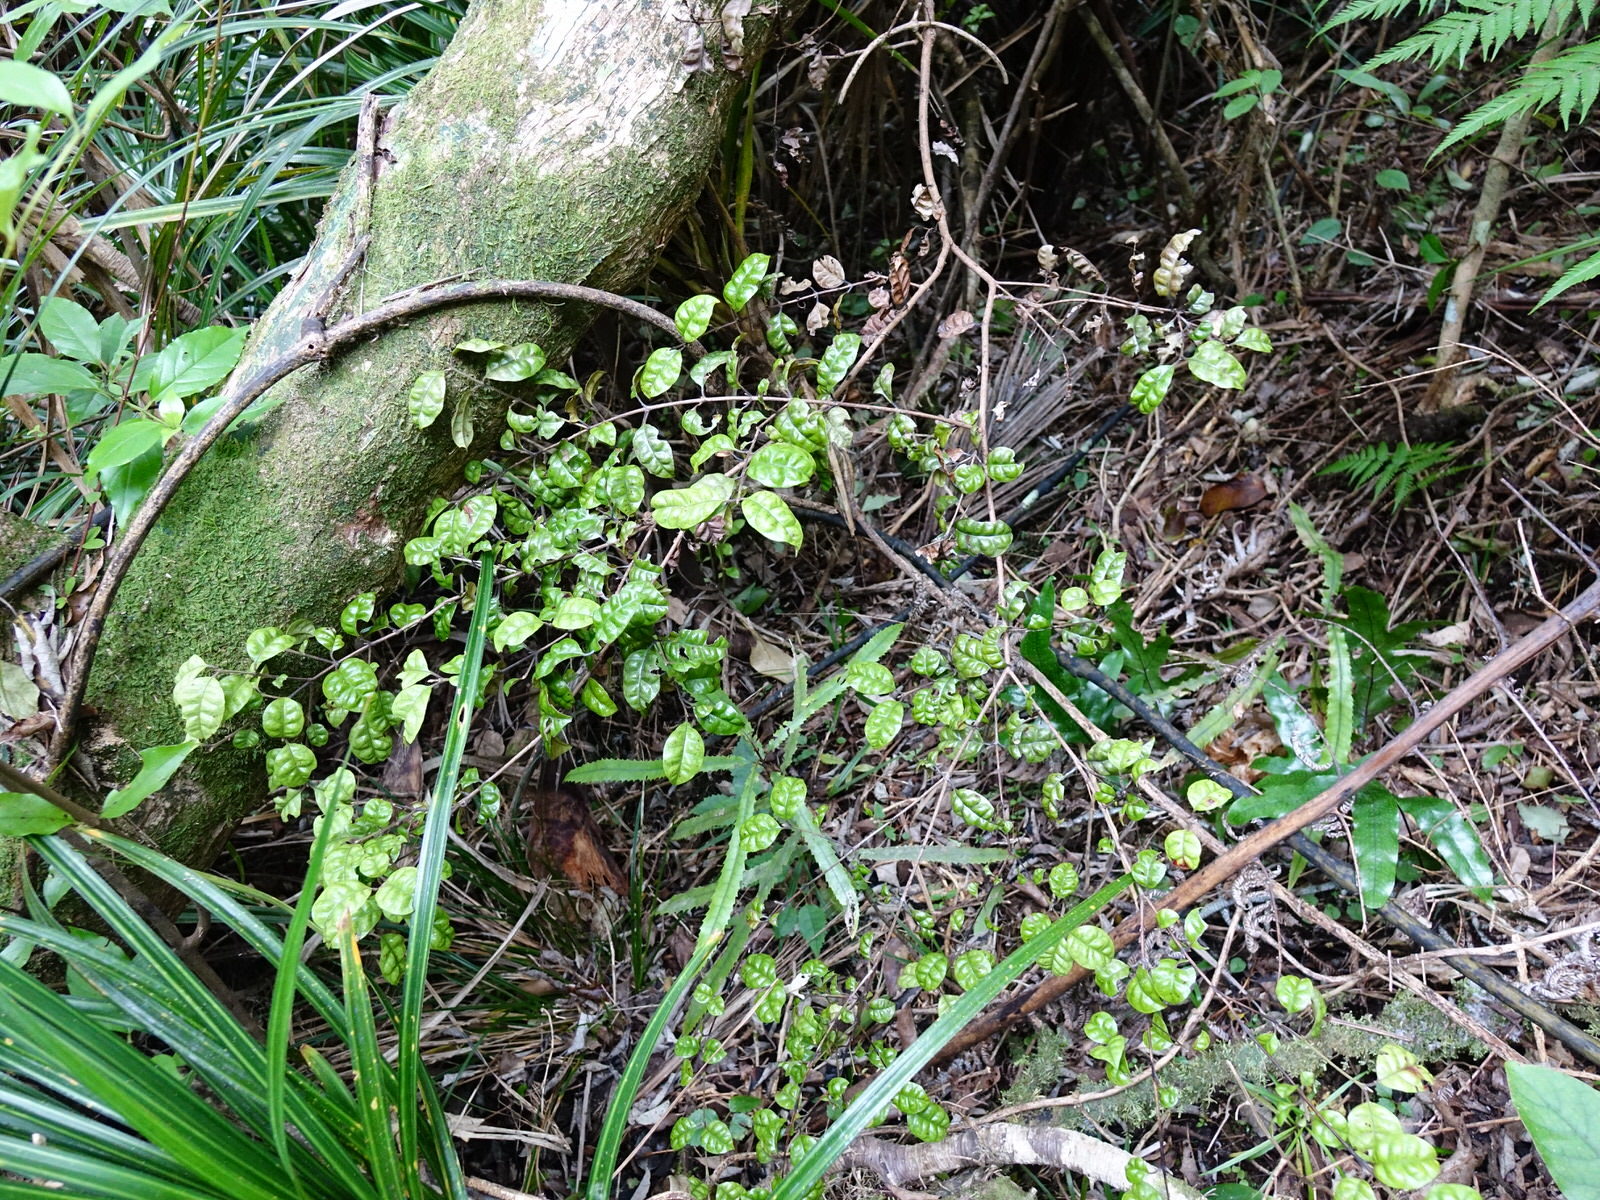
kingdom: Plantae
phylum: Tracheophyta
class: Magnoliopsida
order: Myrtales
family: Myrtaceae
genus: Lophomyrtus
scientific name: Lophomyrtus bullata
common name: Rama rama
